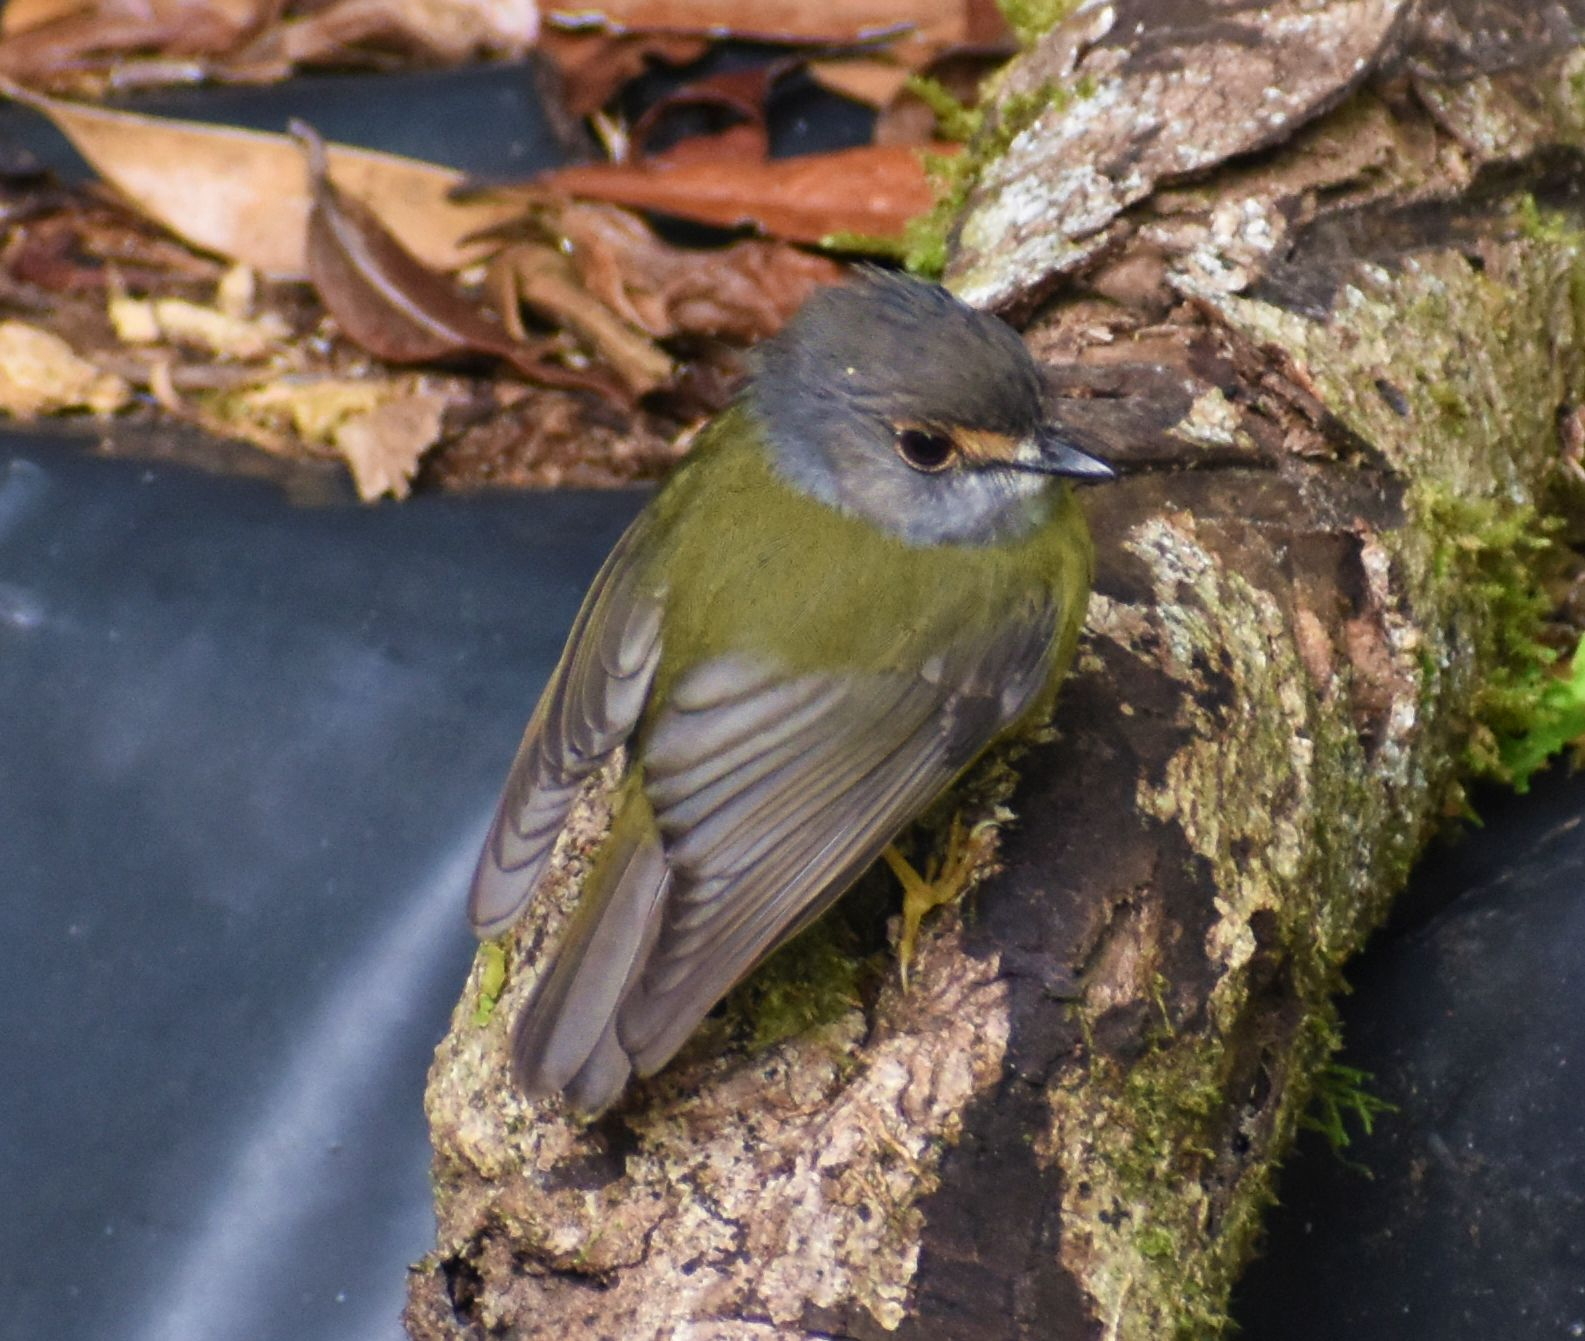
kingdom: Animalia
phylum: Chordata
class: Aves
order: Passeriformes
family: Petroicidae
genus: Eopsaltria
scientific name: Eopsaltria
